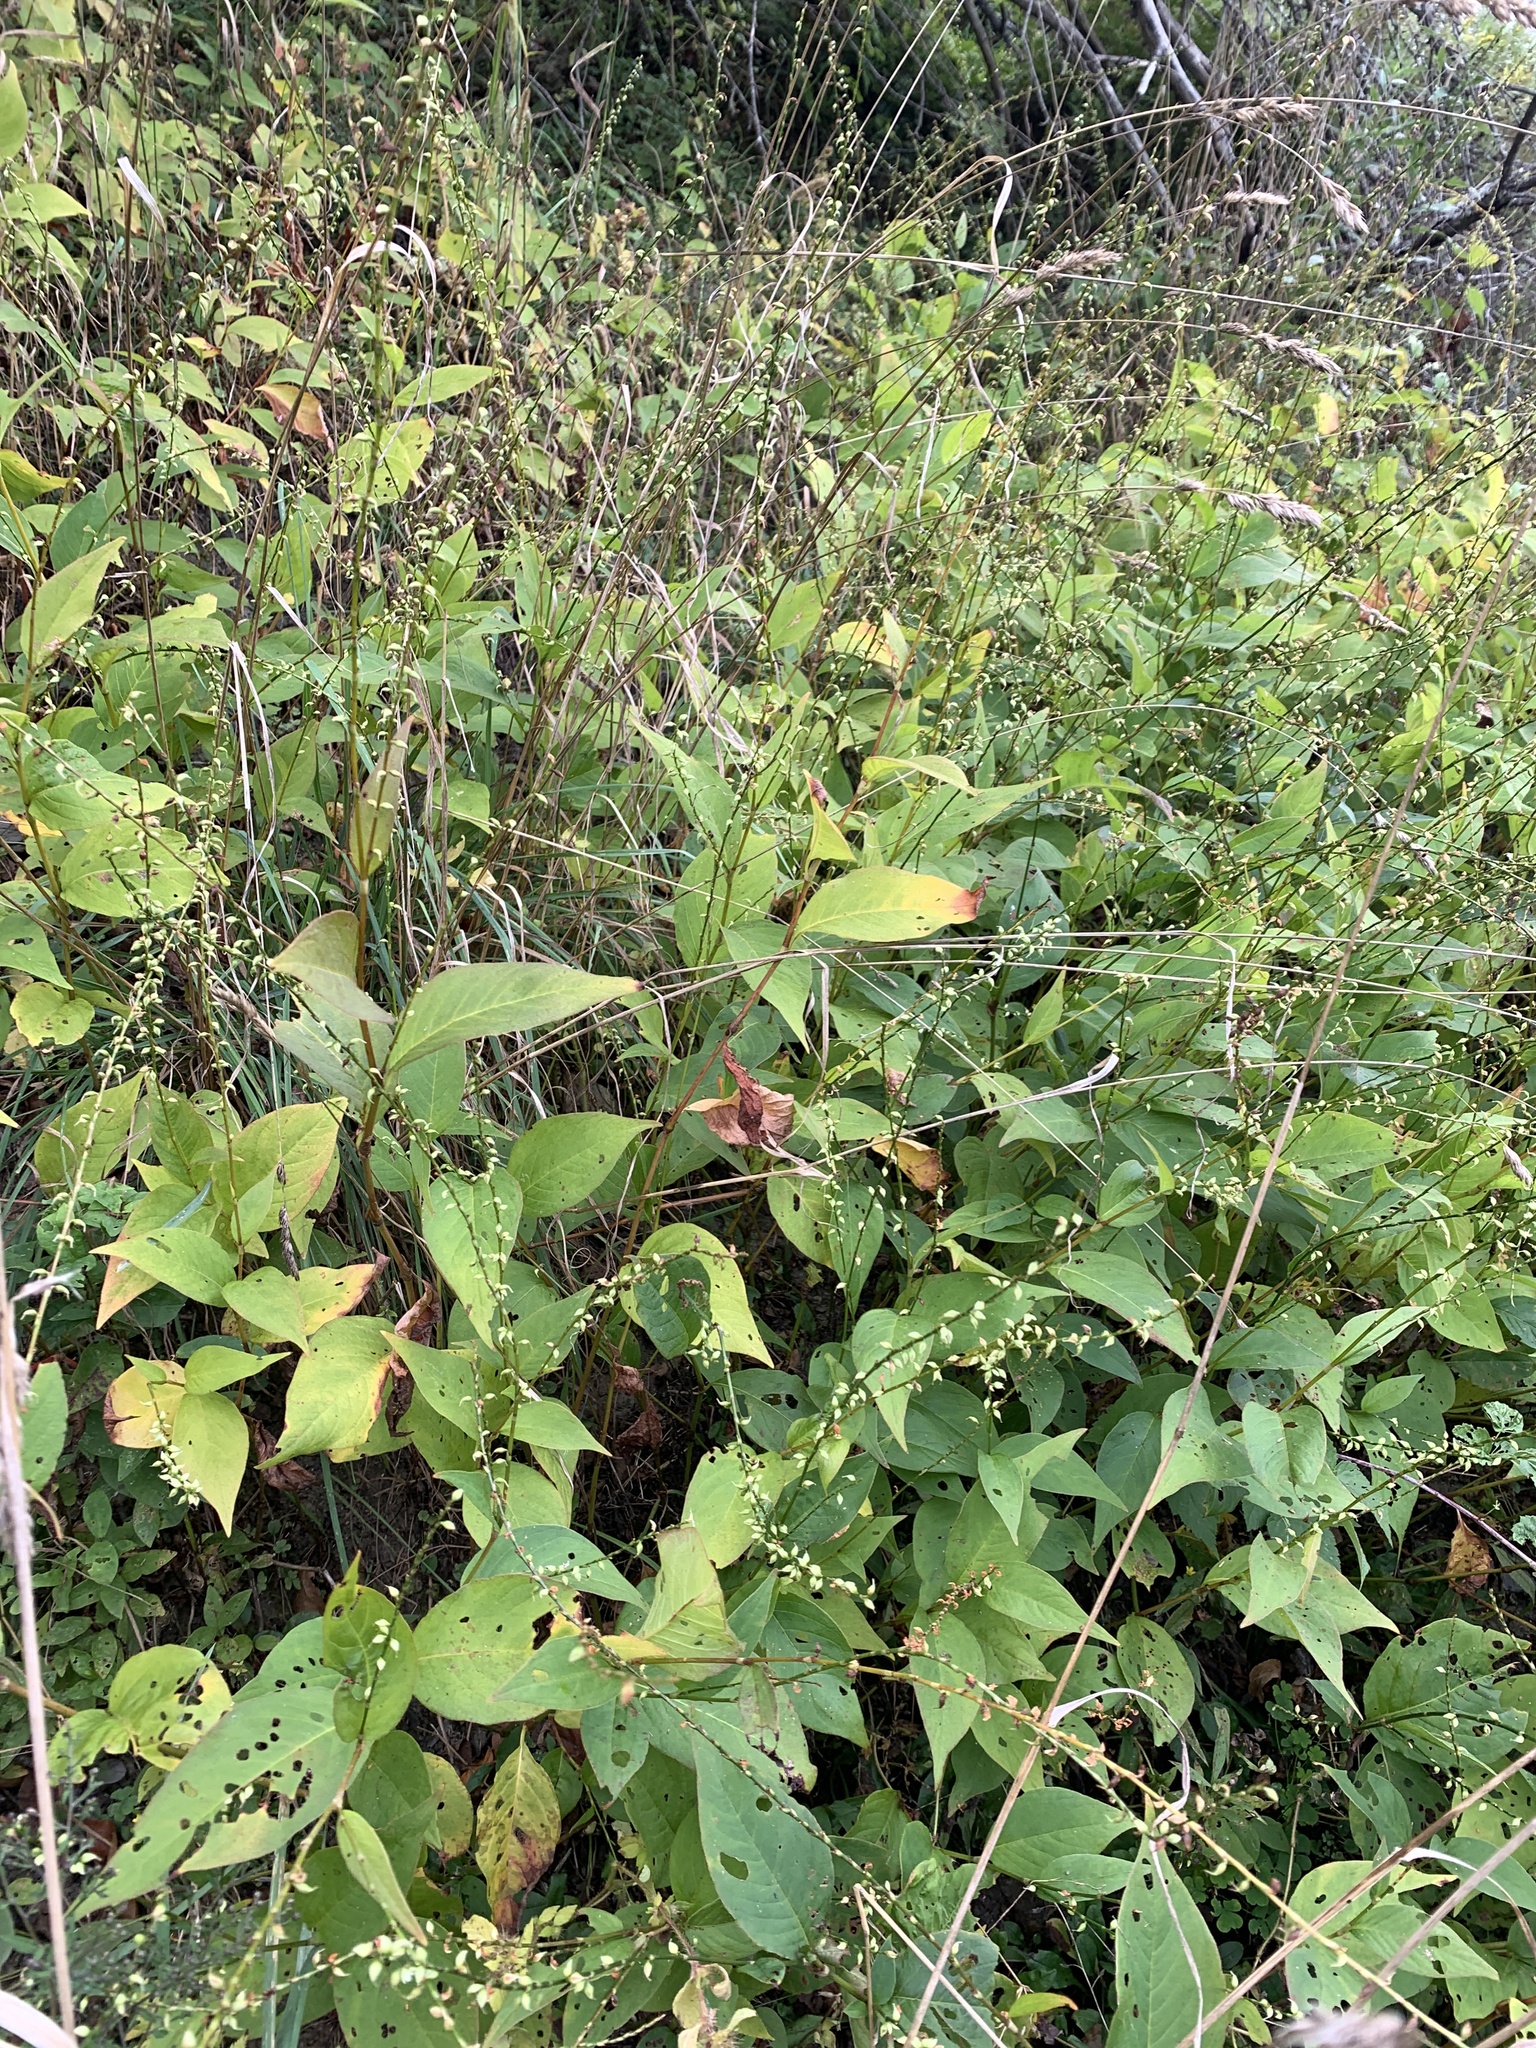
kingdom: Plantae
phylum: Tracheophyta
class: Magnoliopsida
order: Caryophyllales
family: Polygonaceae
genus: Persicaria
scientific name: Persicaria virginiana
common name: Jumpseed
